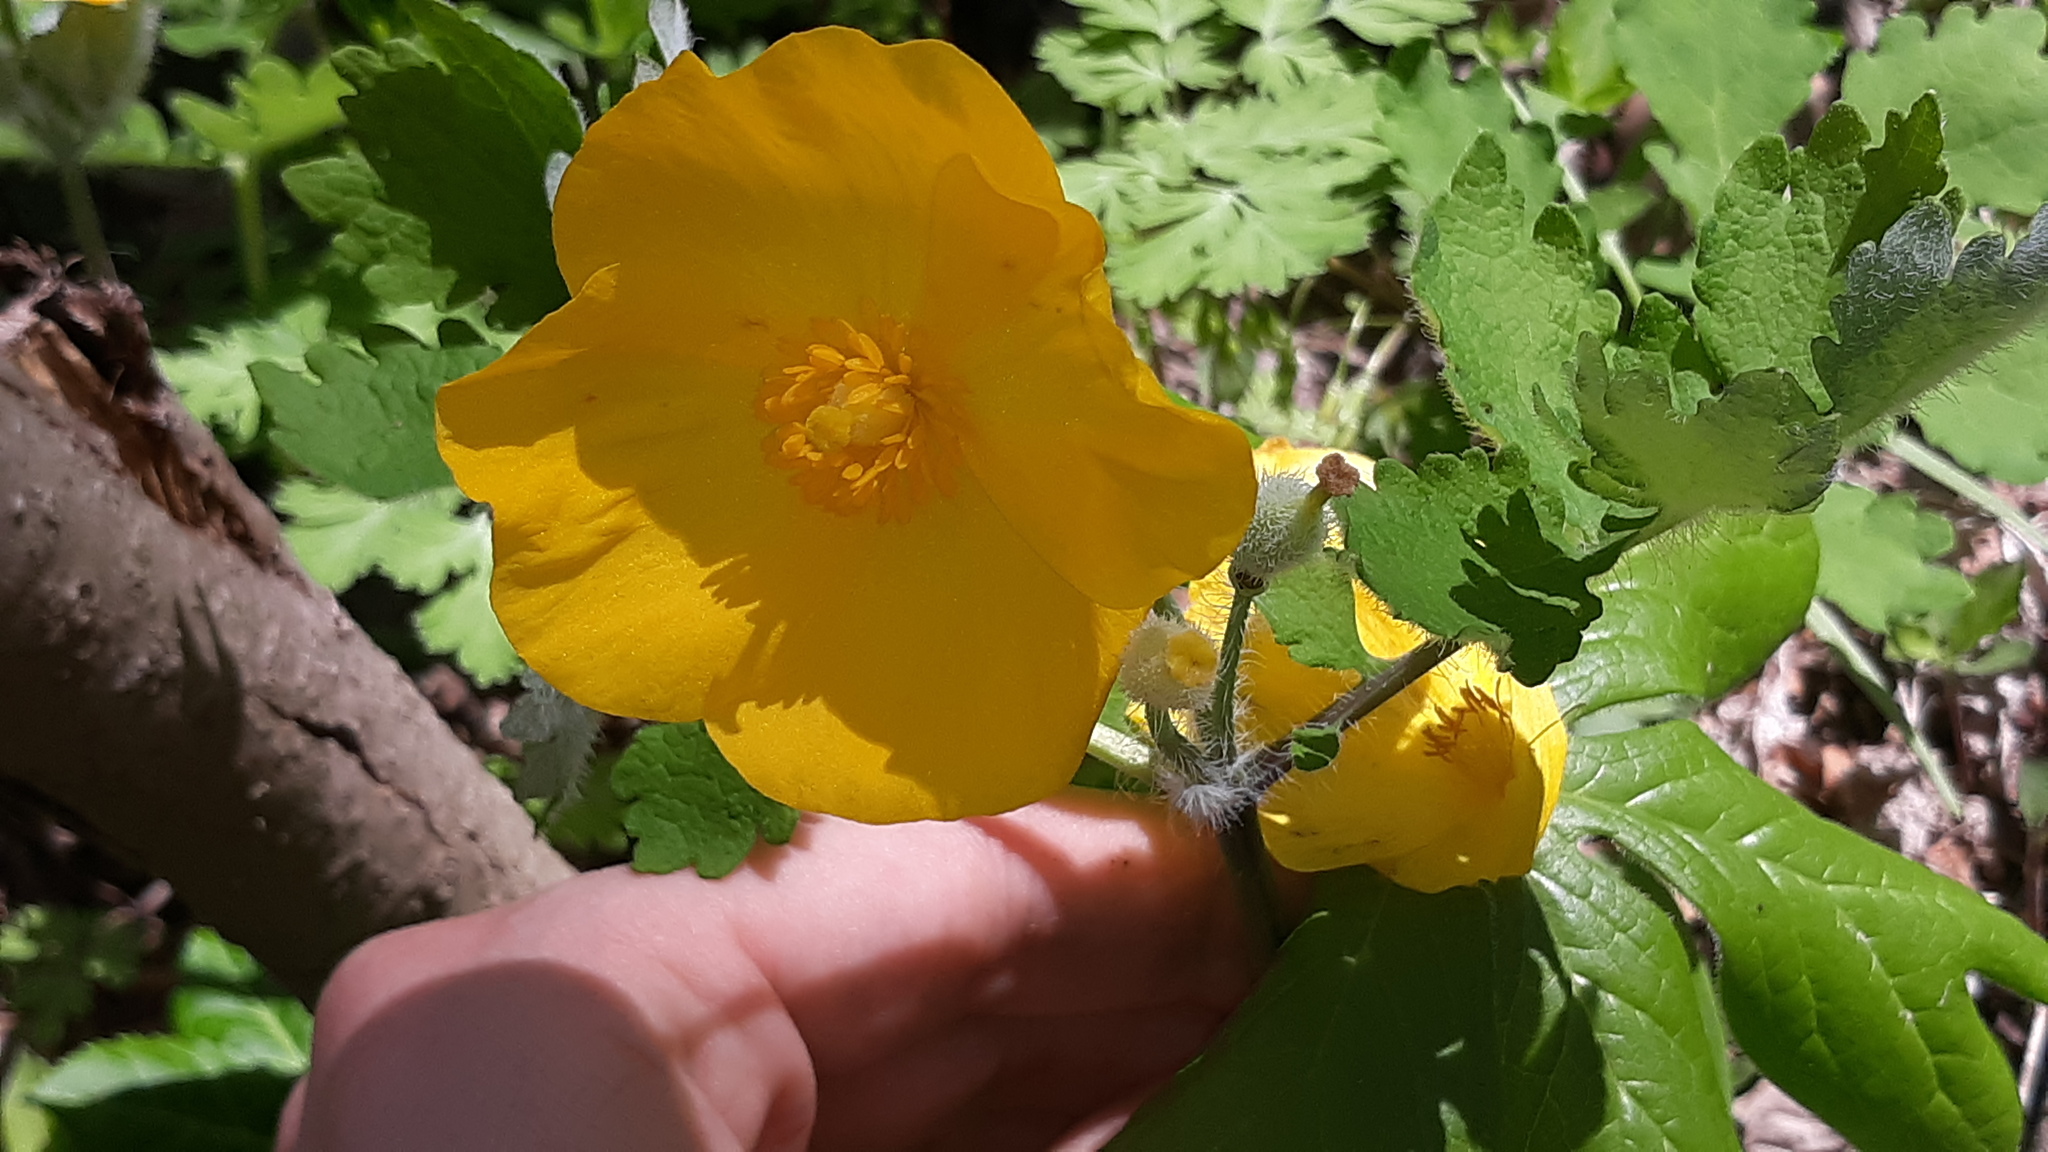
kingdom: Plantae
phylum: Tracheophyta
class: Magnoliopsida
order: Ranunculales
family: Papaveraceae
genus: Stylophorum
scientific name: Stylophorum diphyllum
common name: Celandine poppy
